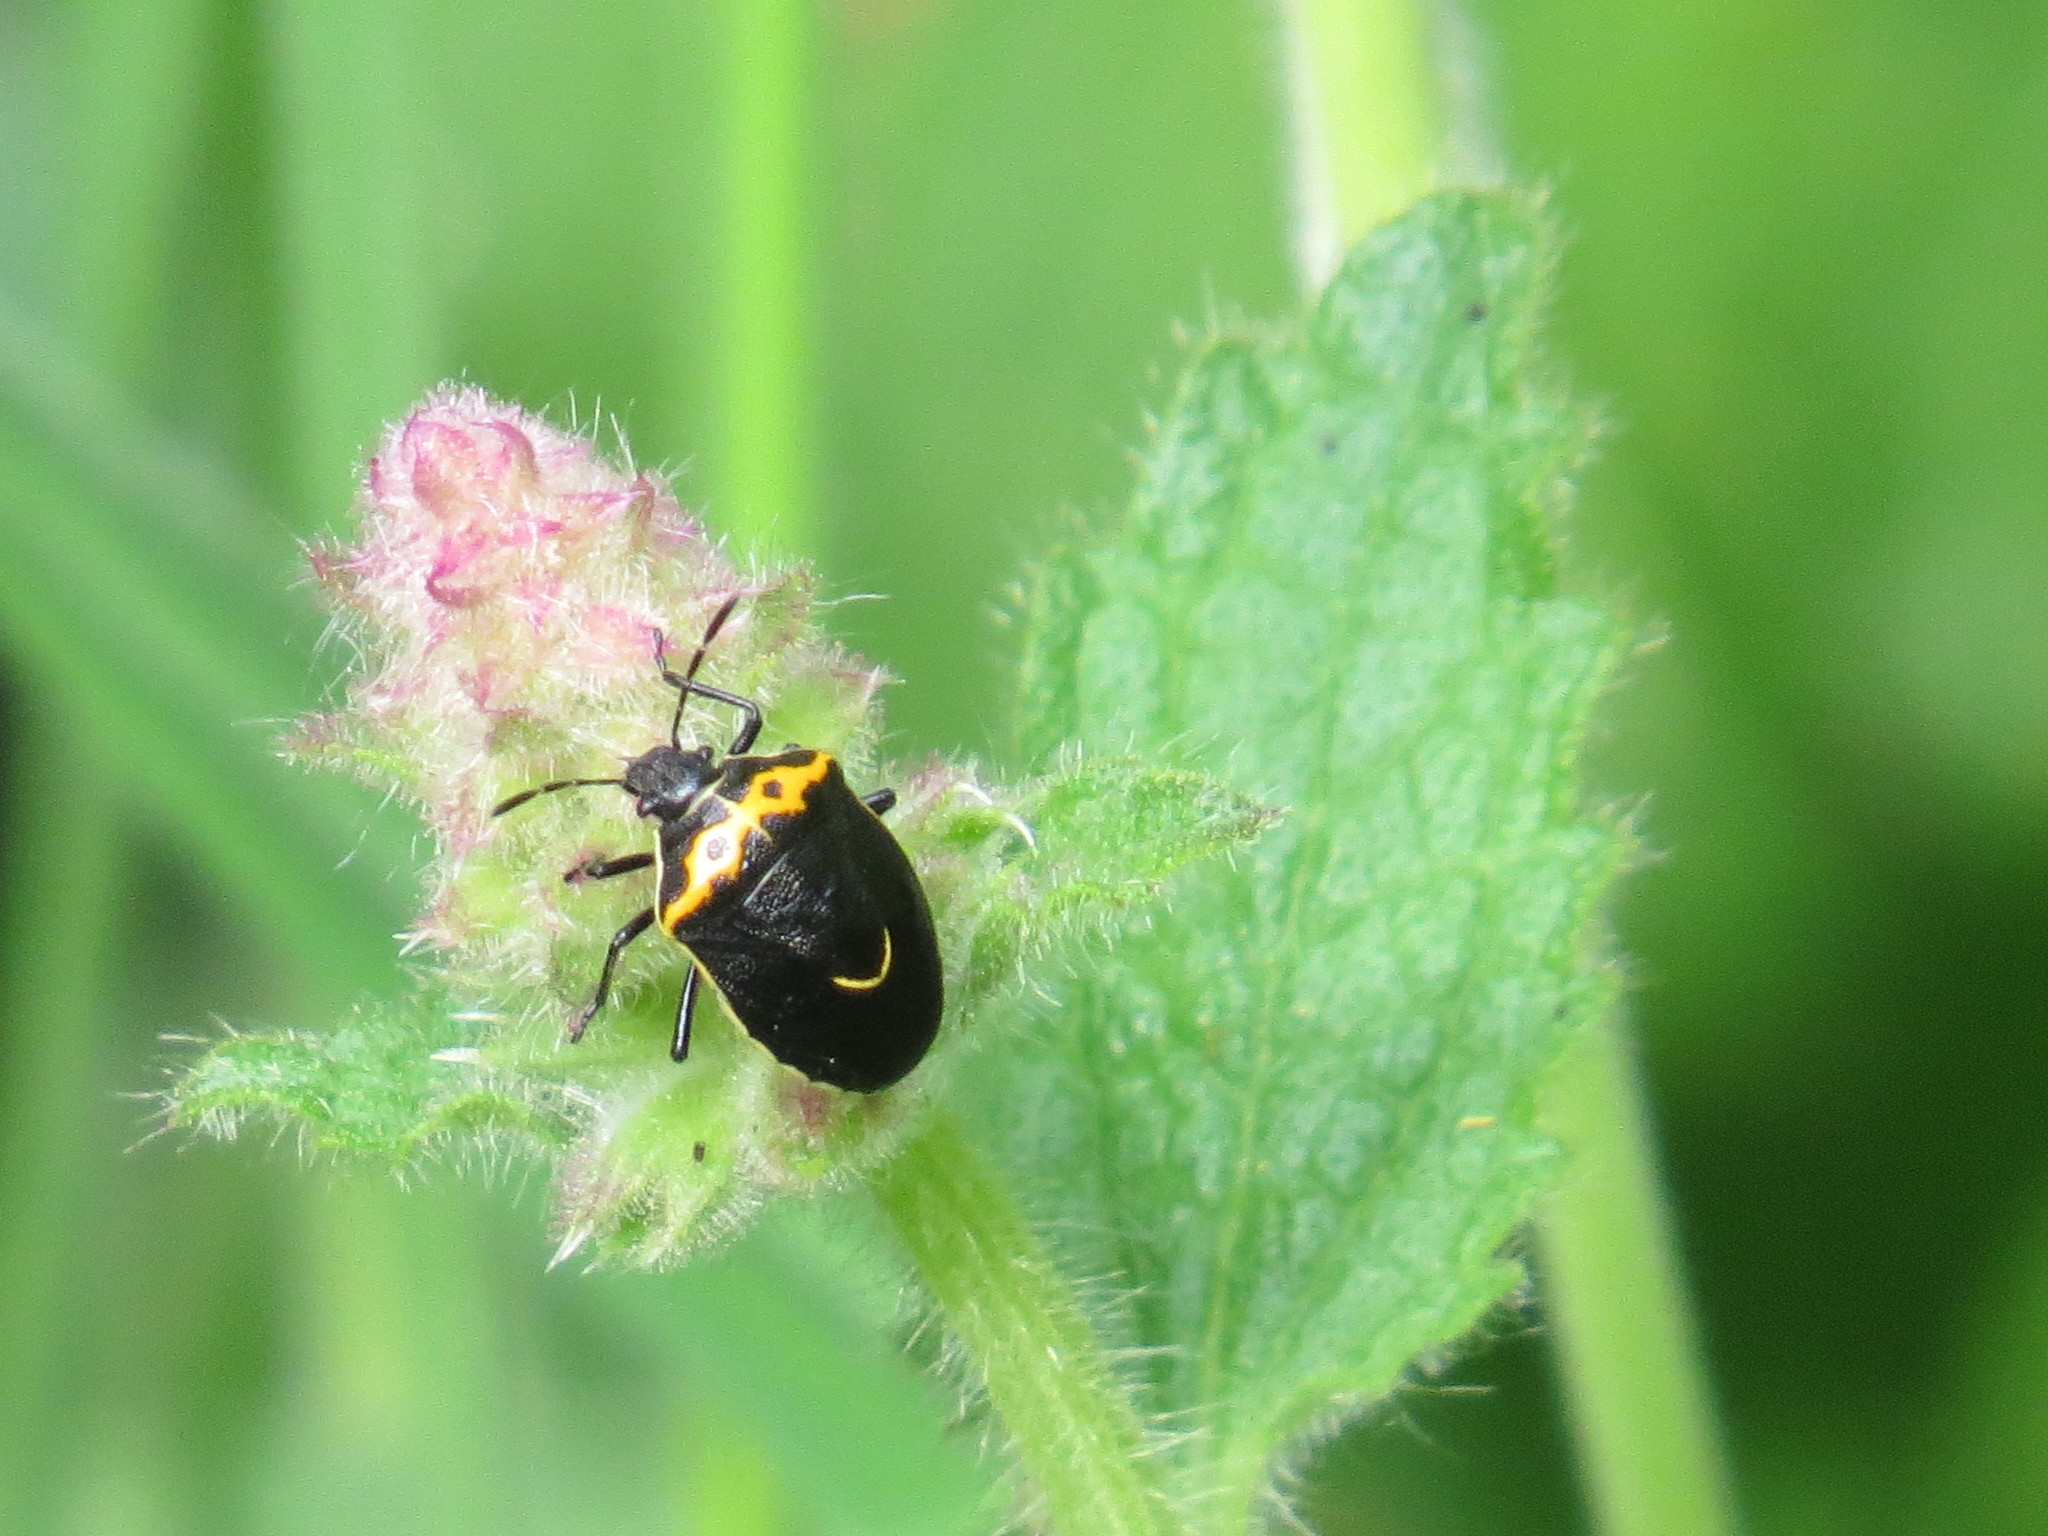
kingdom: Animalia
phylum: Arthropoda
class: Insecta
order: Hemiptera
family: Pentatomidae
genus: Cosmopepla
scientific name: Cosmopepla conspicillaris
